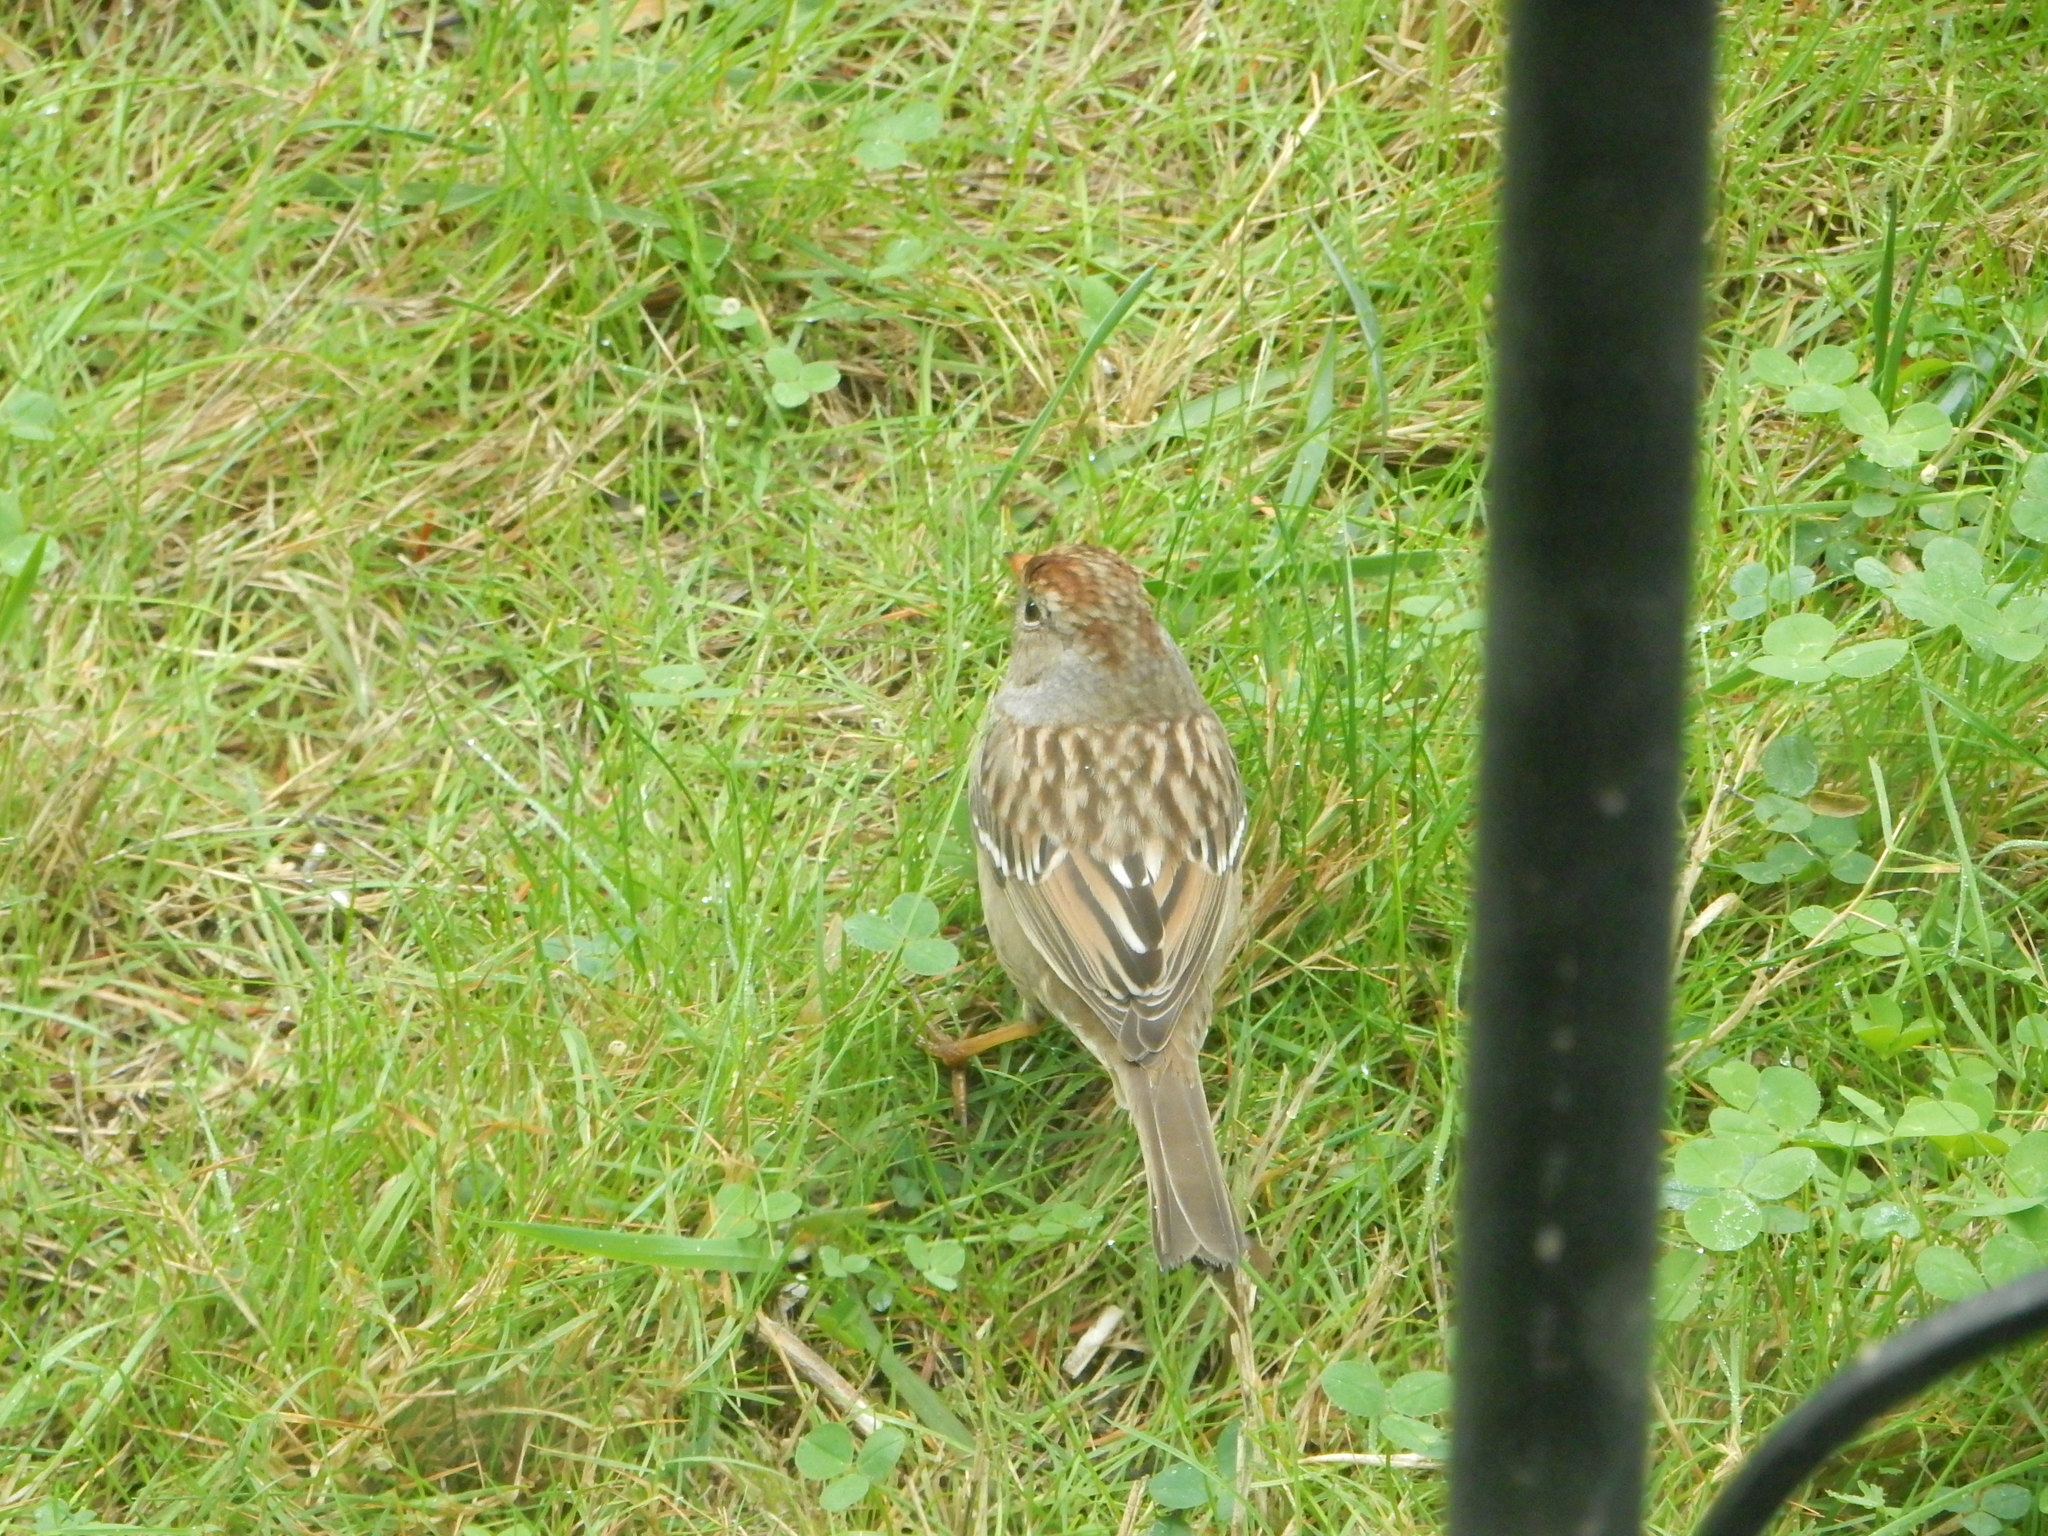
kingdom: Animalia
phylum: Chordata
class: Aves
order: Passeriformes
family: Passerellidae
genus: Zonotrichia
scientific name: Zonotrichia leucophrys
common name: White-crowned sparrow
